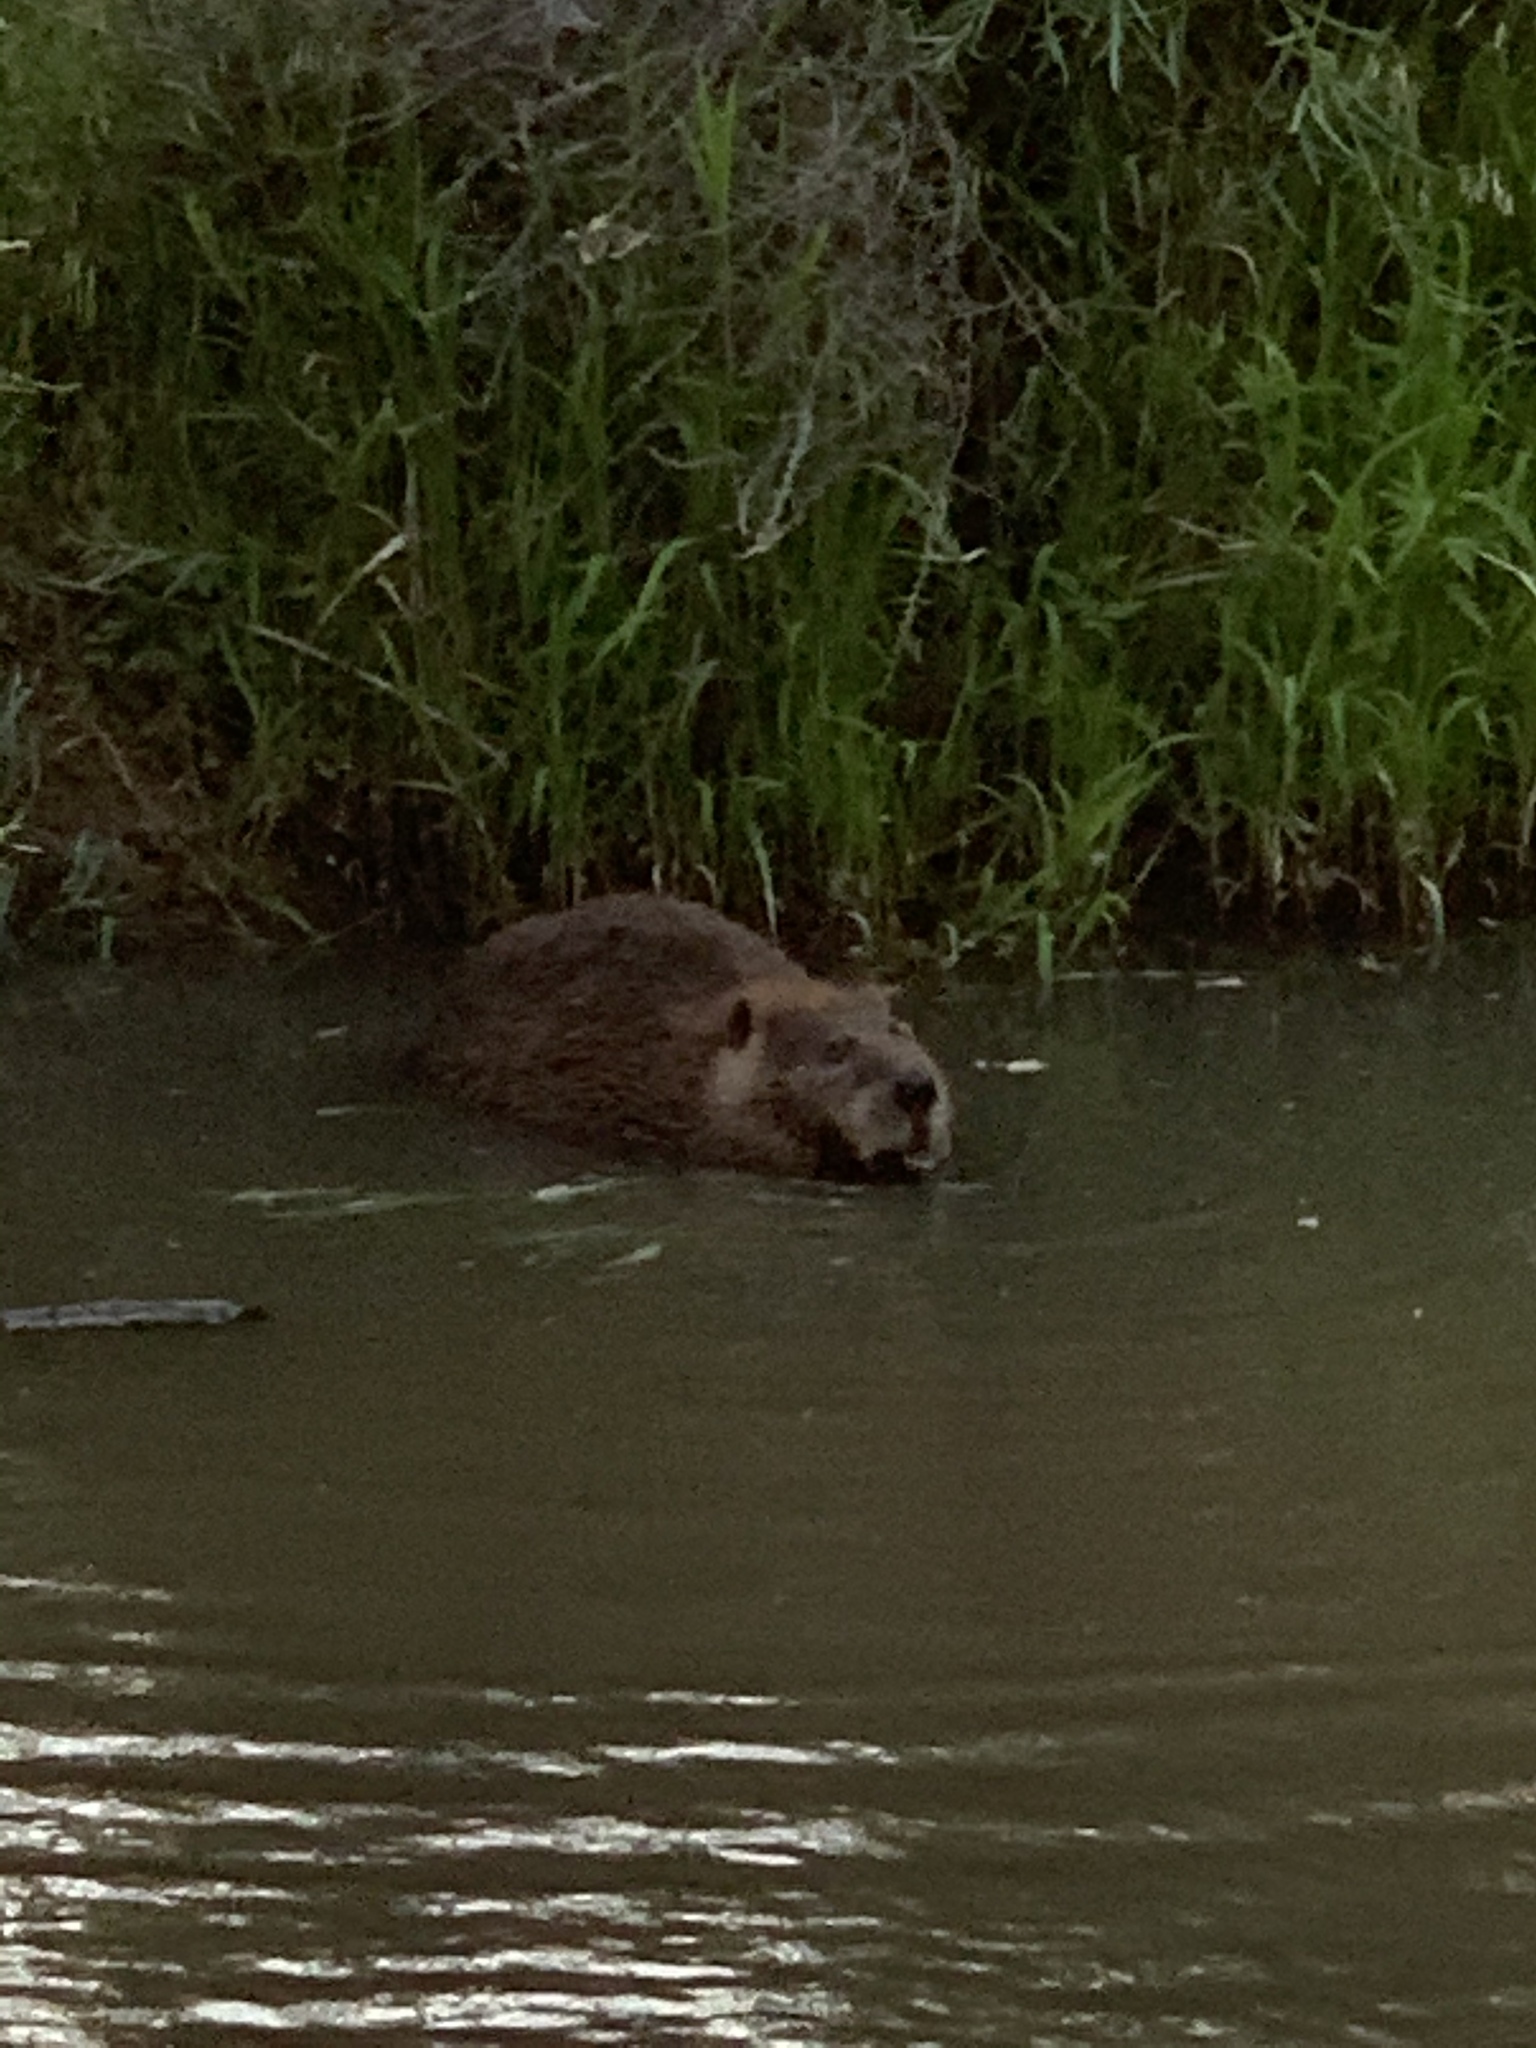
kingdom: Animalia
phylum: Chordata
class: Mammalia
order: Rodentia
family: Cricetidae
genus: Ondatra
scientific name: Ondatra zibethicus
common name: Muskrat
